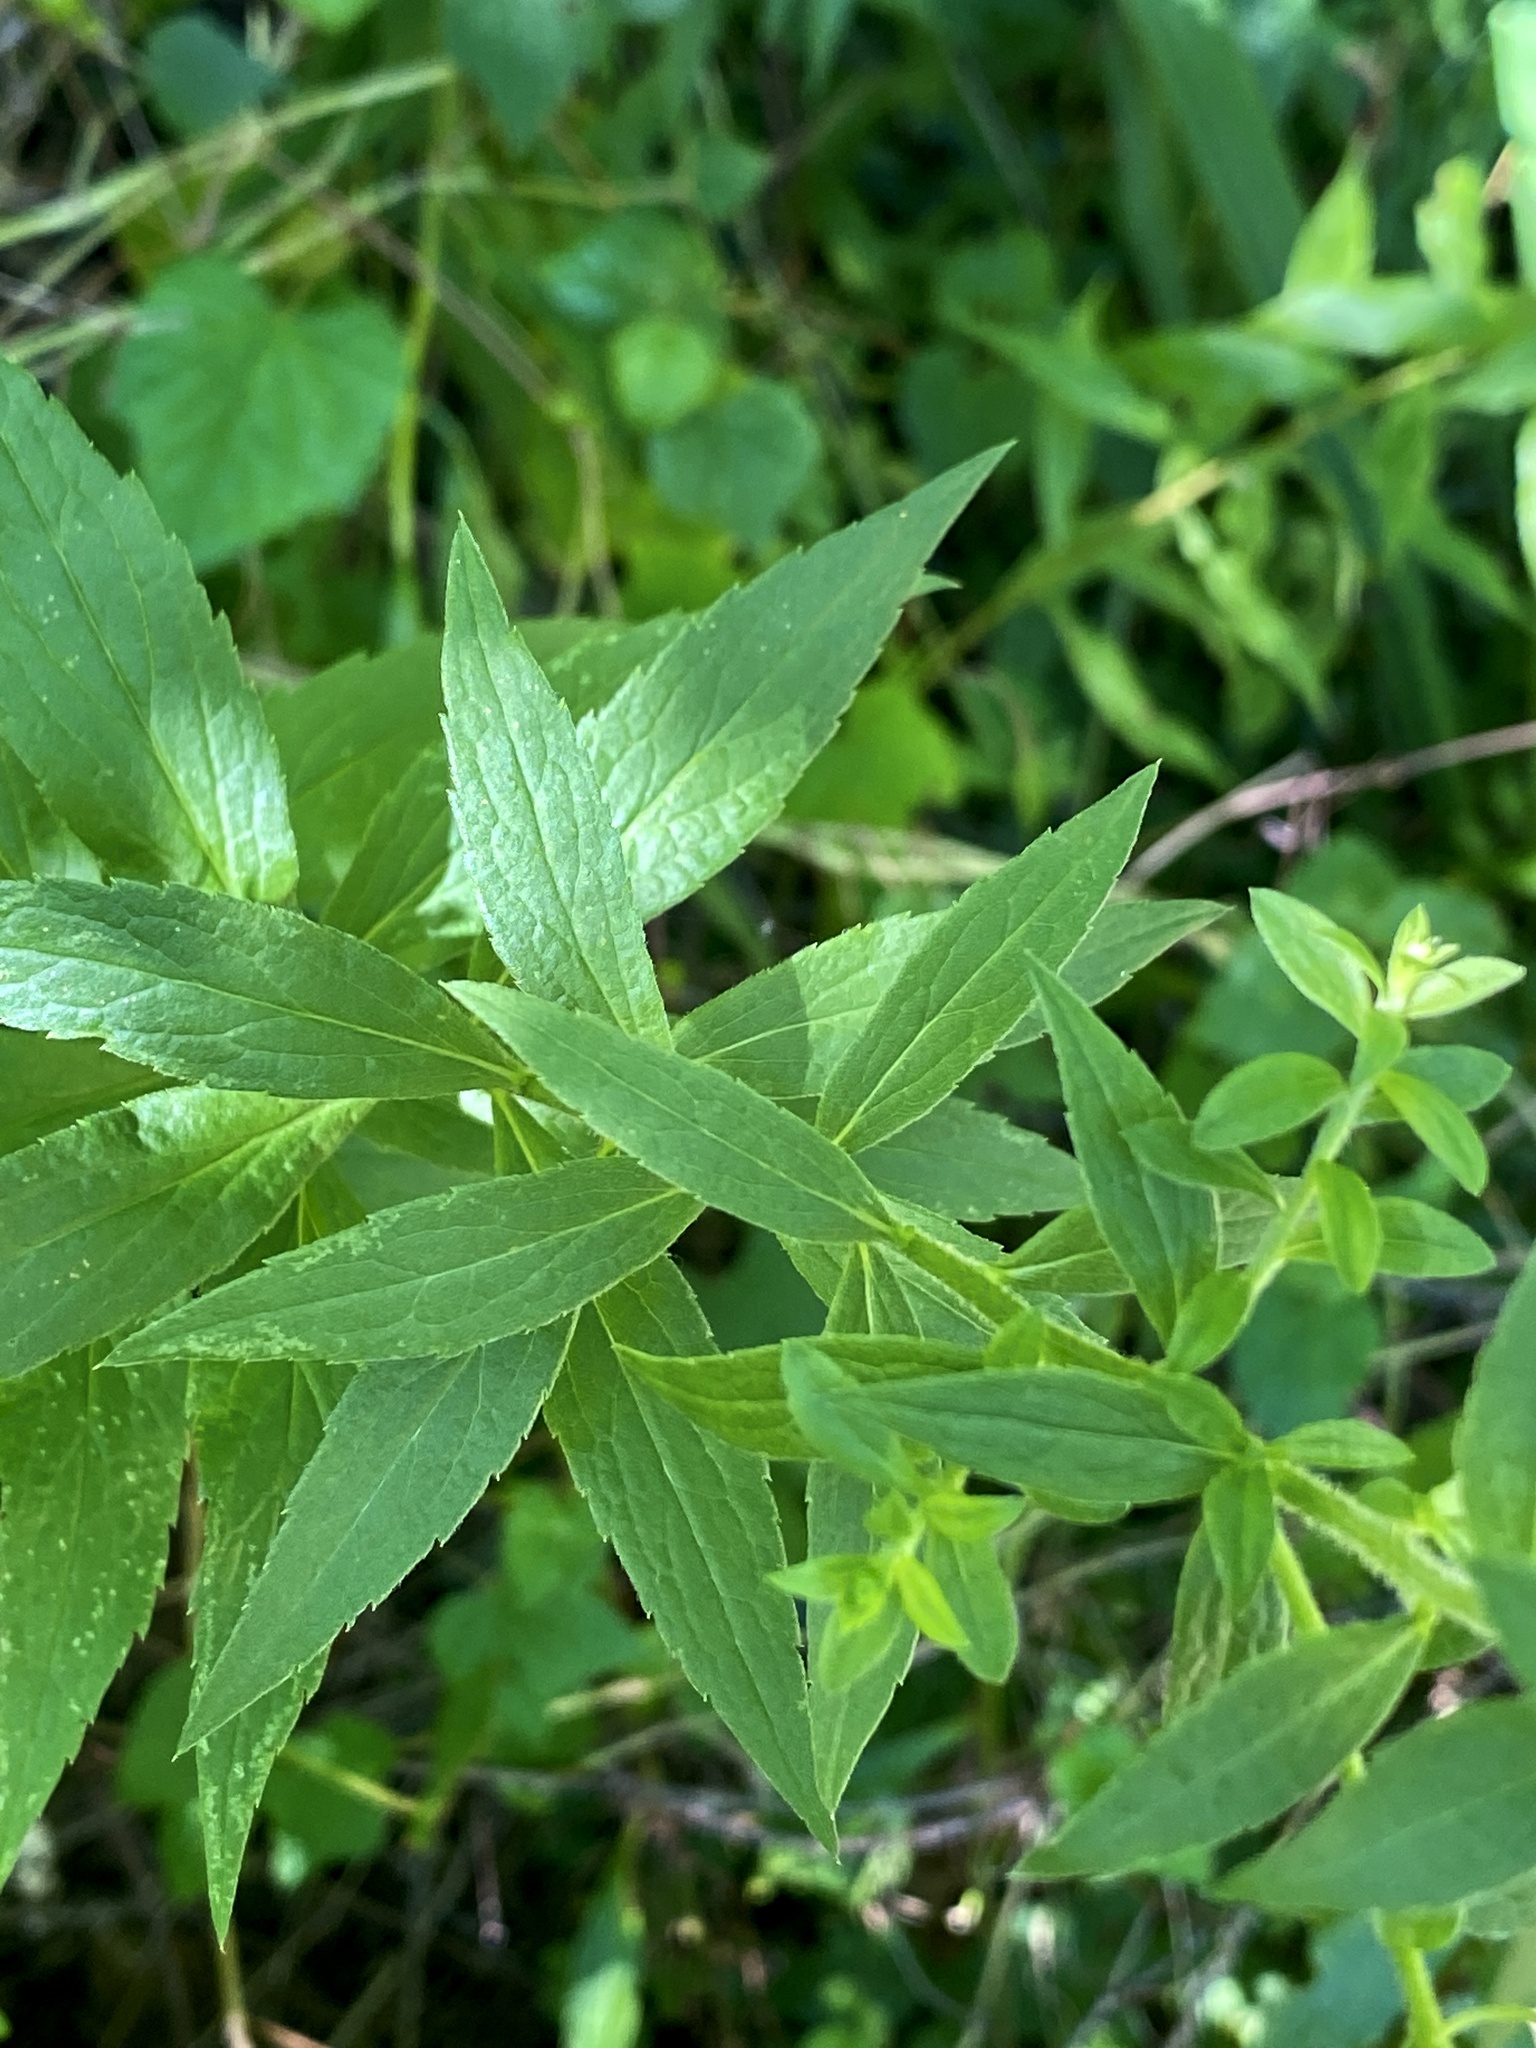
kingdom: Plantae
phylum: Tracheophyta
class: Magnoliopsida
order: Asterales
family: Asteraceae
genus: Solidago
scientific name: Solidago rugosa
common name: Rough-stemmed goldenrod
